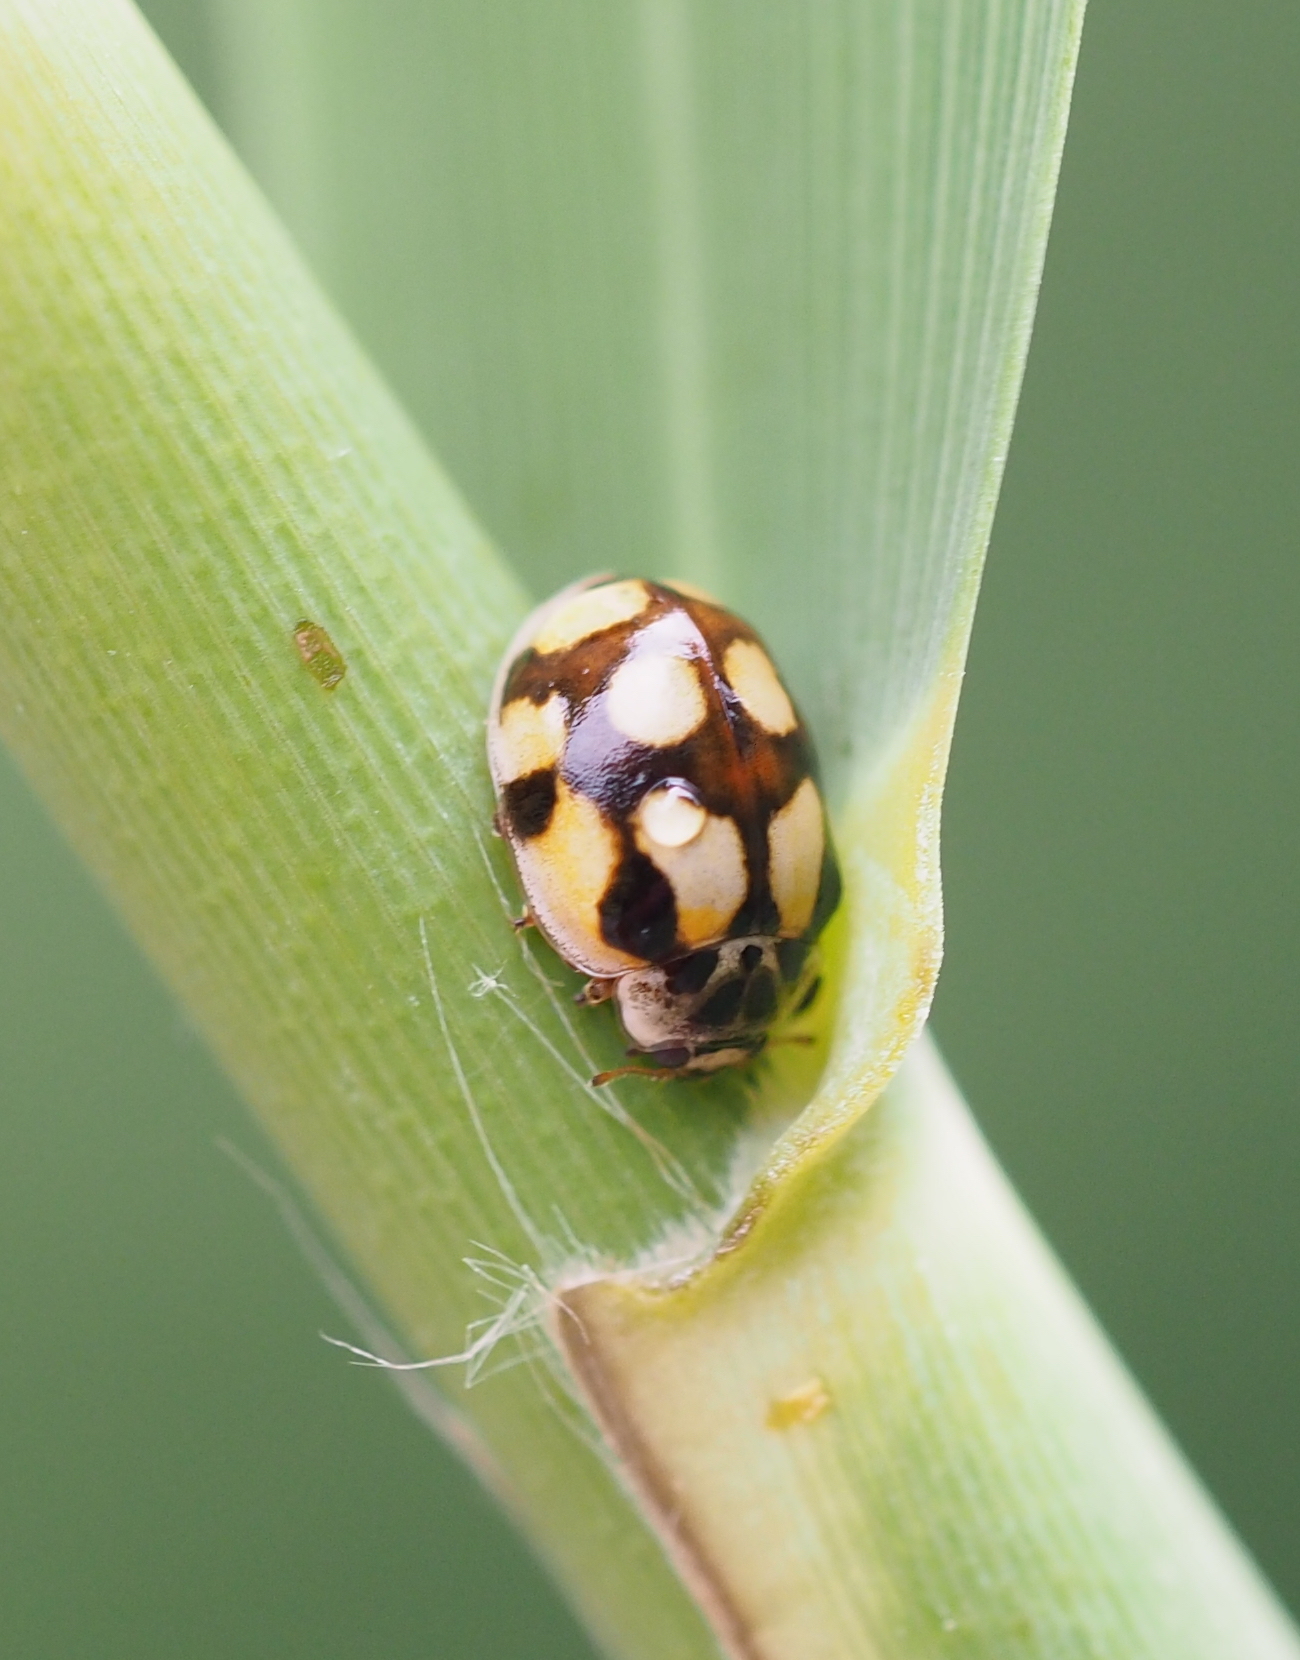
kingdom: Animalia
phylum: Arthropoda
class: Insecta
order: Coleoptera
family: Coccinellidae
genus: Adalia
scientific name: Adalia decempunctata
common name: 10-spot ladybird
